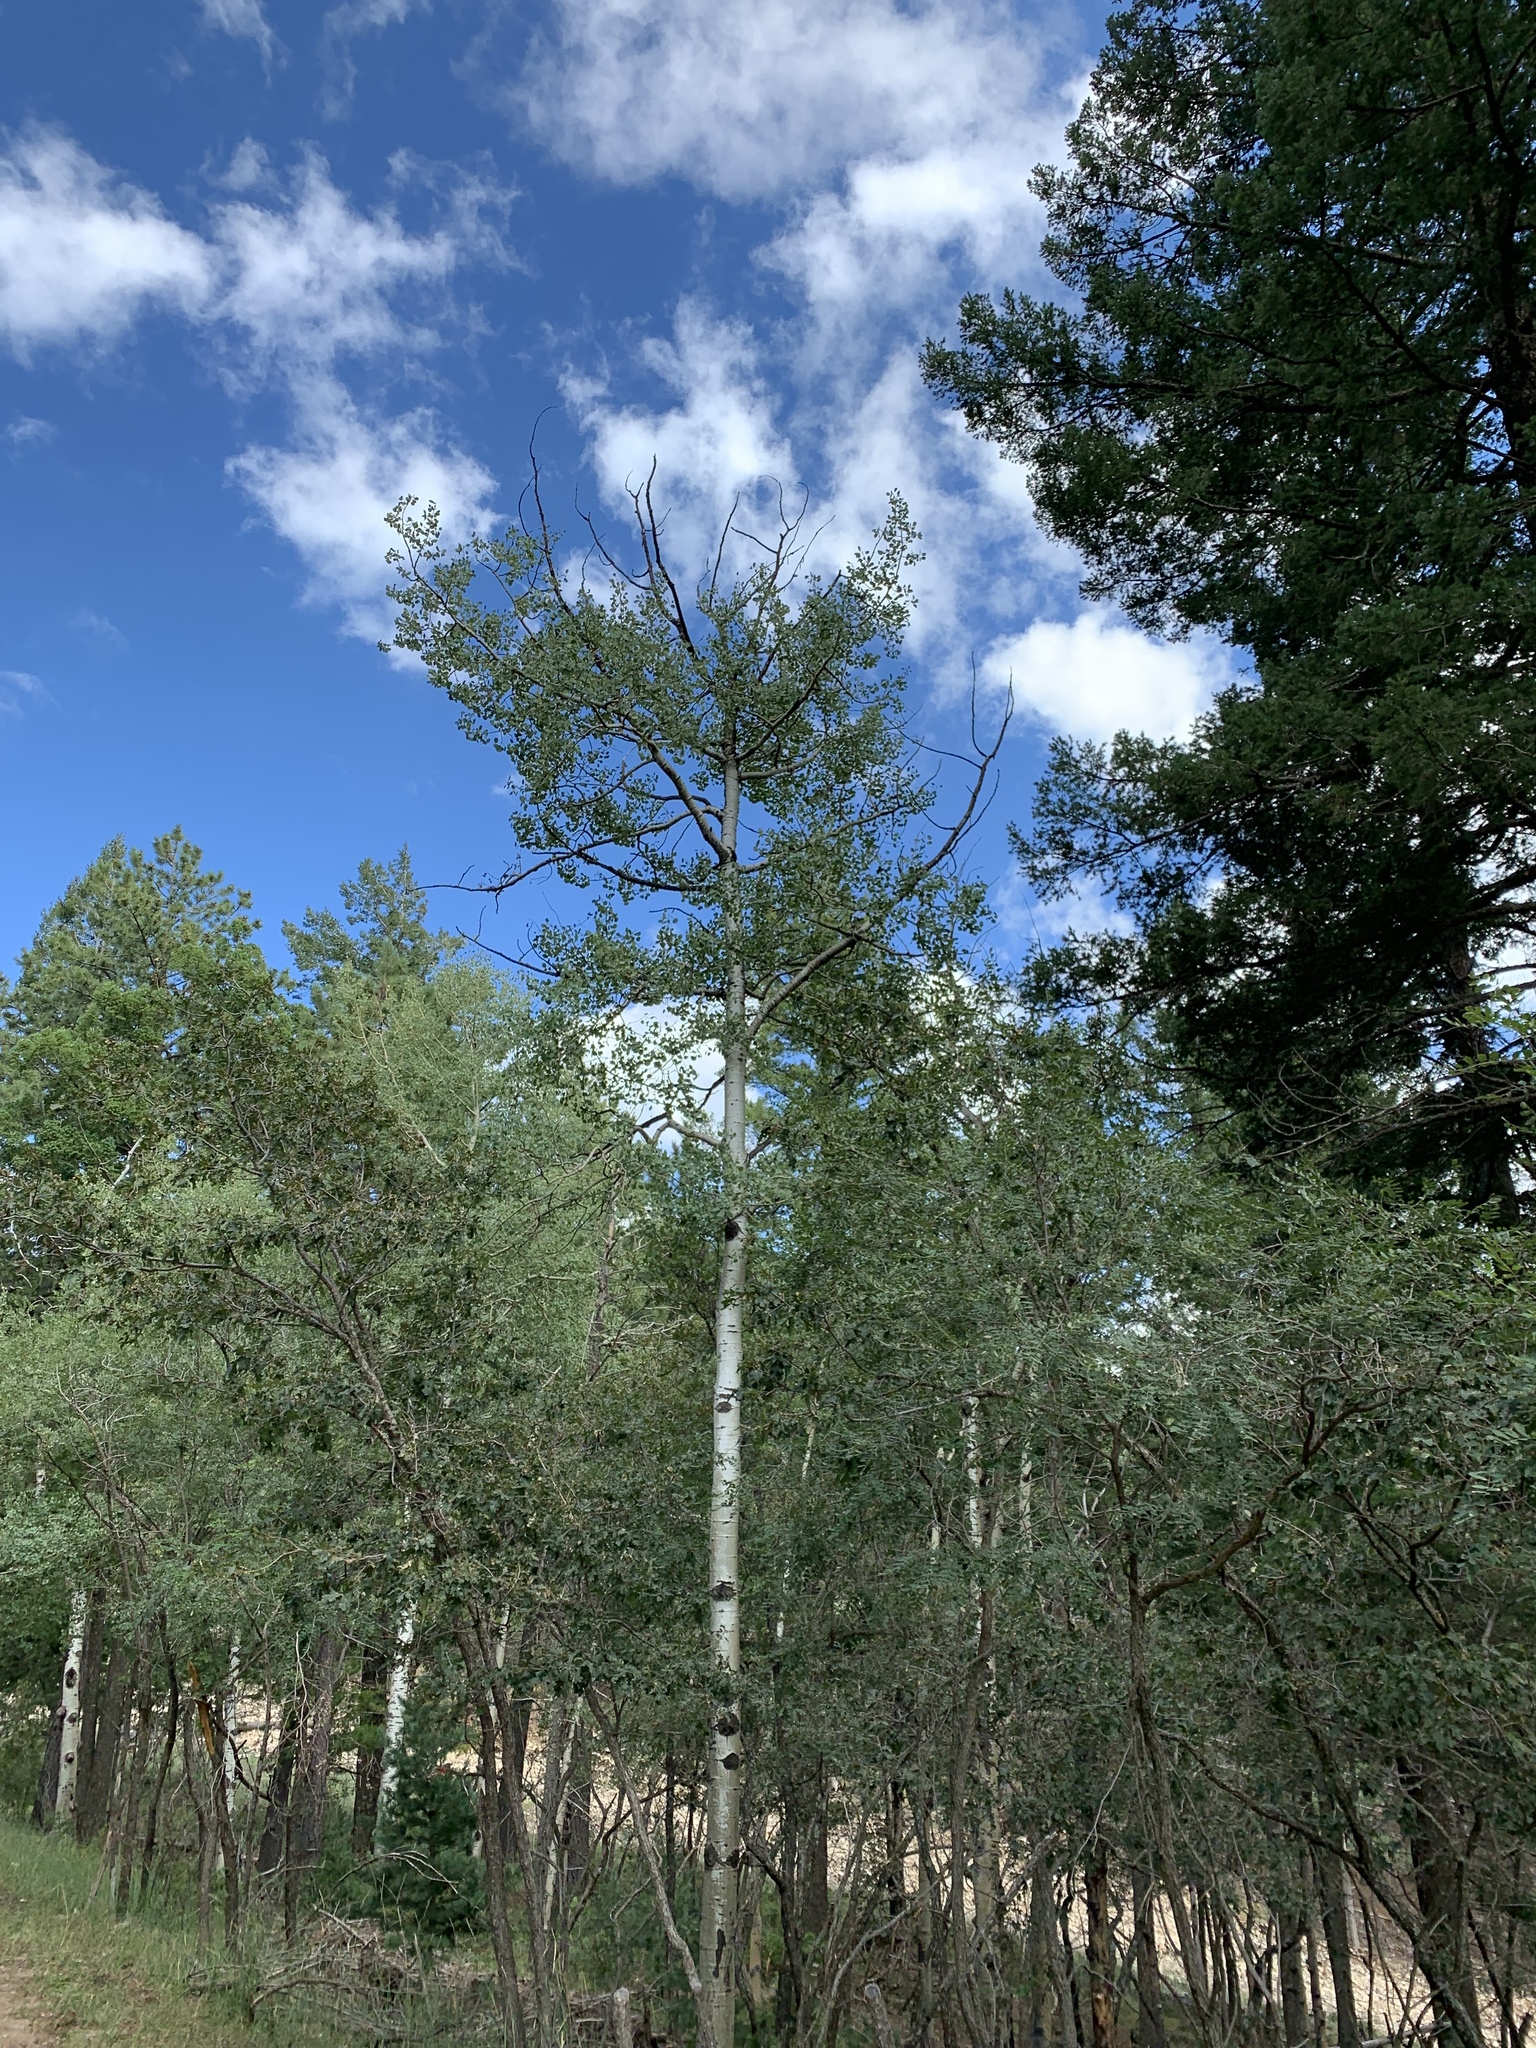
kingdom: Plantae
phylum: Tracheophyta
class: Magnoliopsida
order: Malpighiales
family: Salicaceae
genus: Populus
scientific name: Populus tremuloides
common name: Quaking aspen
